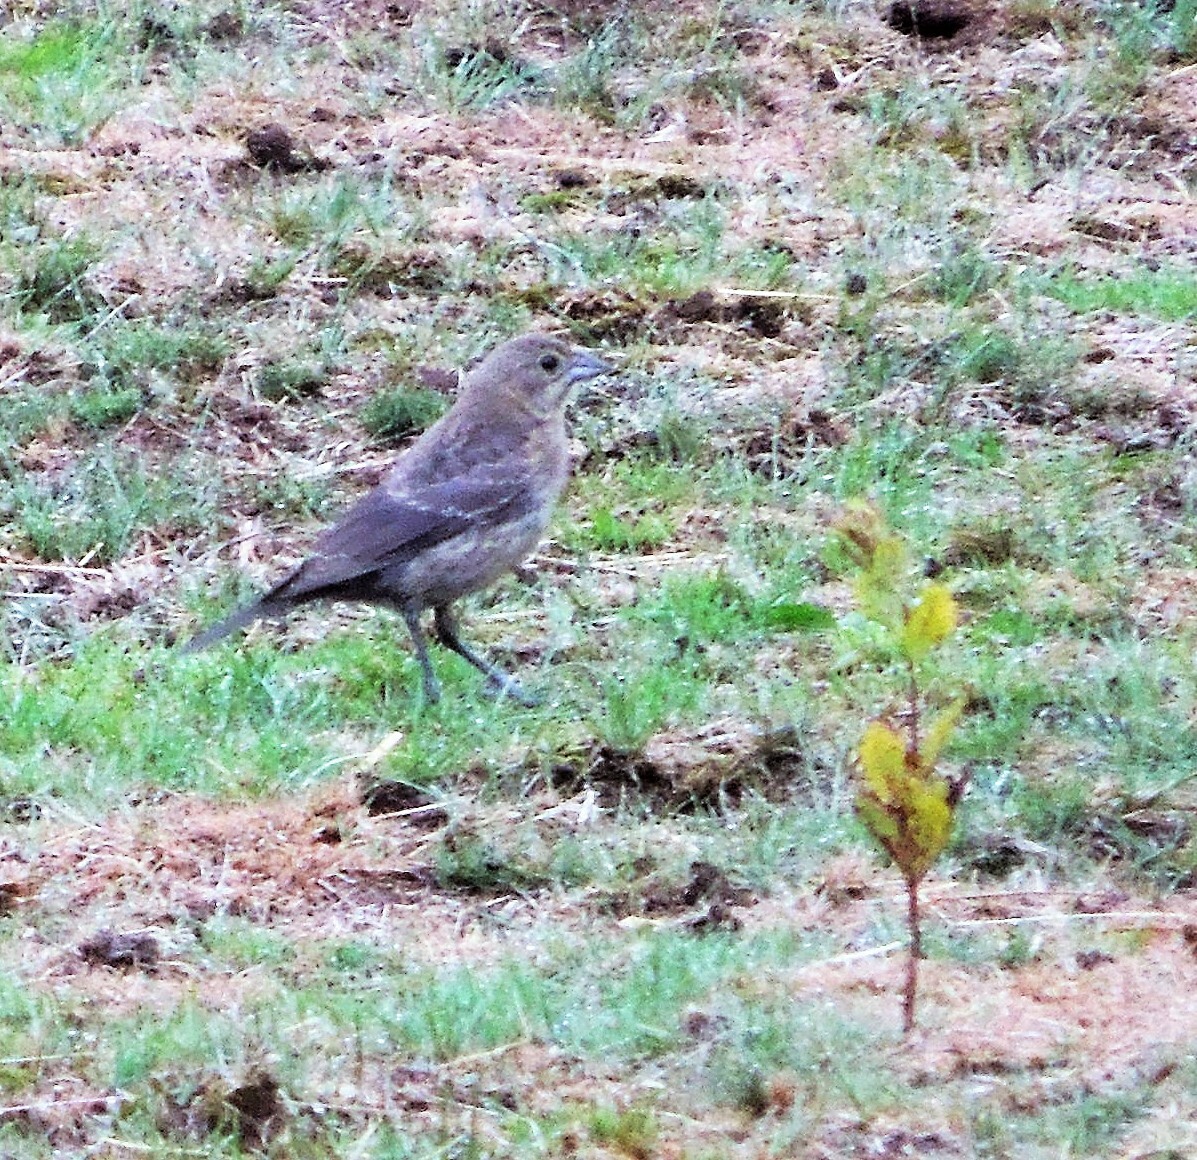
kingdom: Animalia
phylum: Chordata
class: Aves
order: Passeriformes
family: Icteridae
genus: Molothrus
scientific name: Molothrus ater
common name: Brown-headed cowbird
